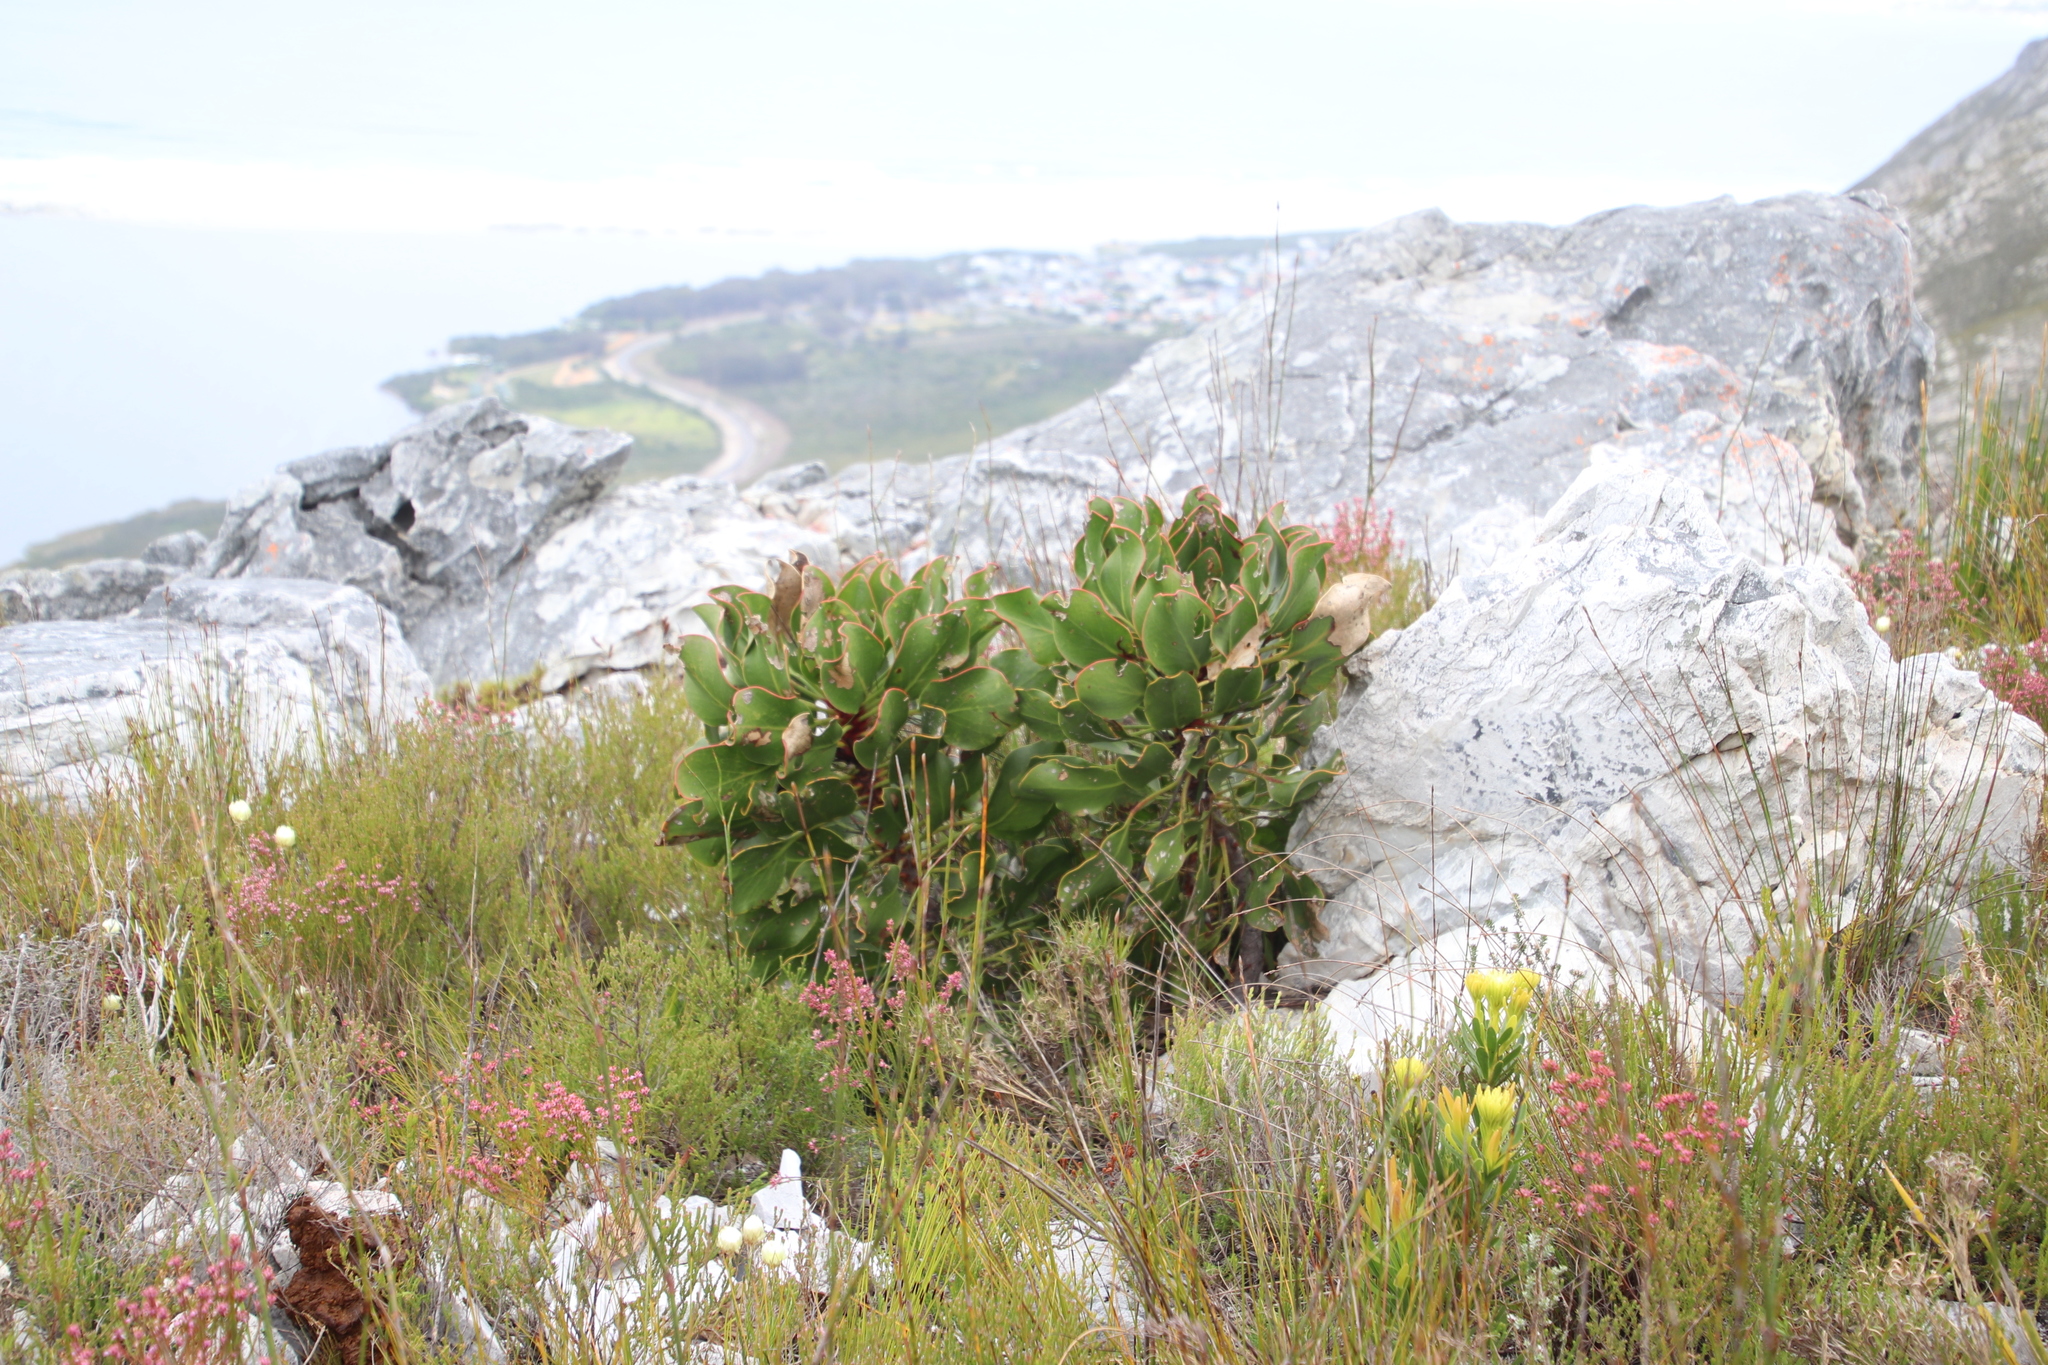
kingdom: Plantae
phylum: Tracheophyta
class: Magnoliopsida
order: Proteales
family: Proteaceae
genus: Protea
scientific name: Protea cynaroides
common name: King protea
